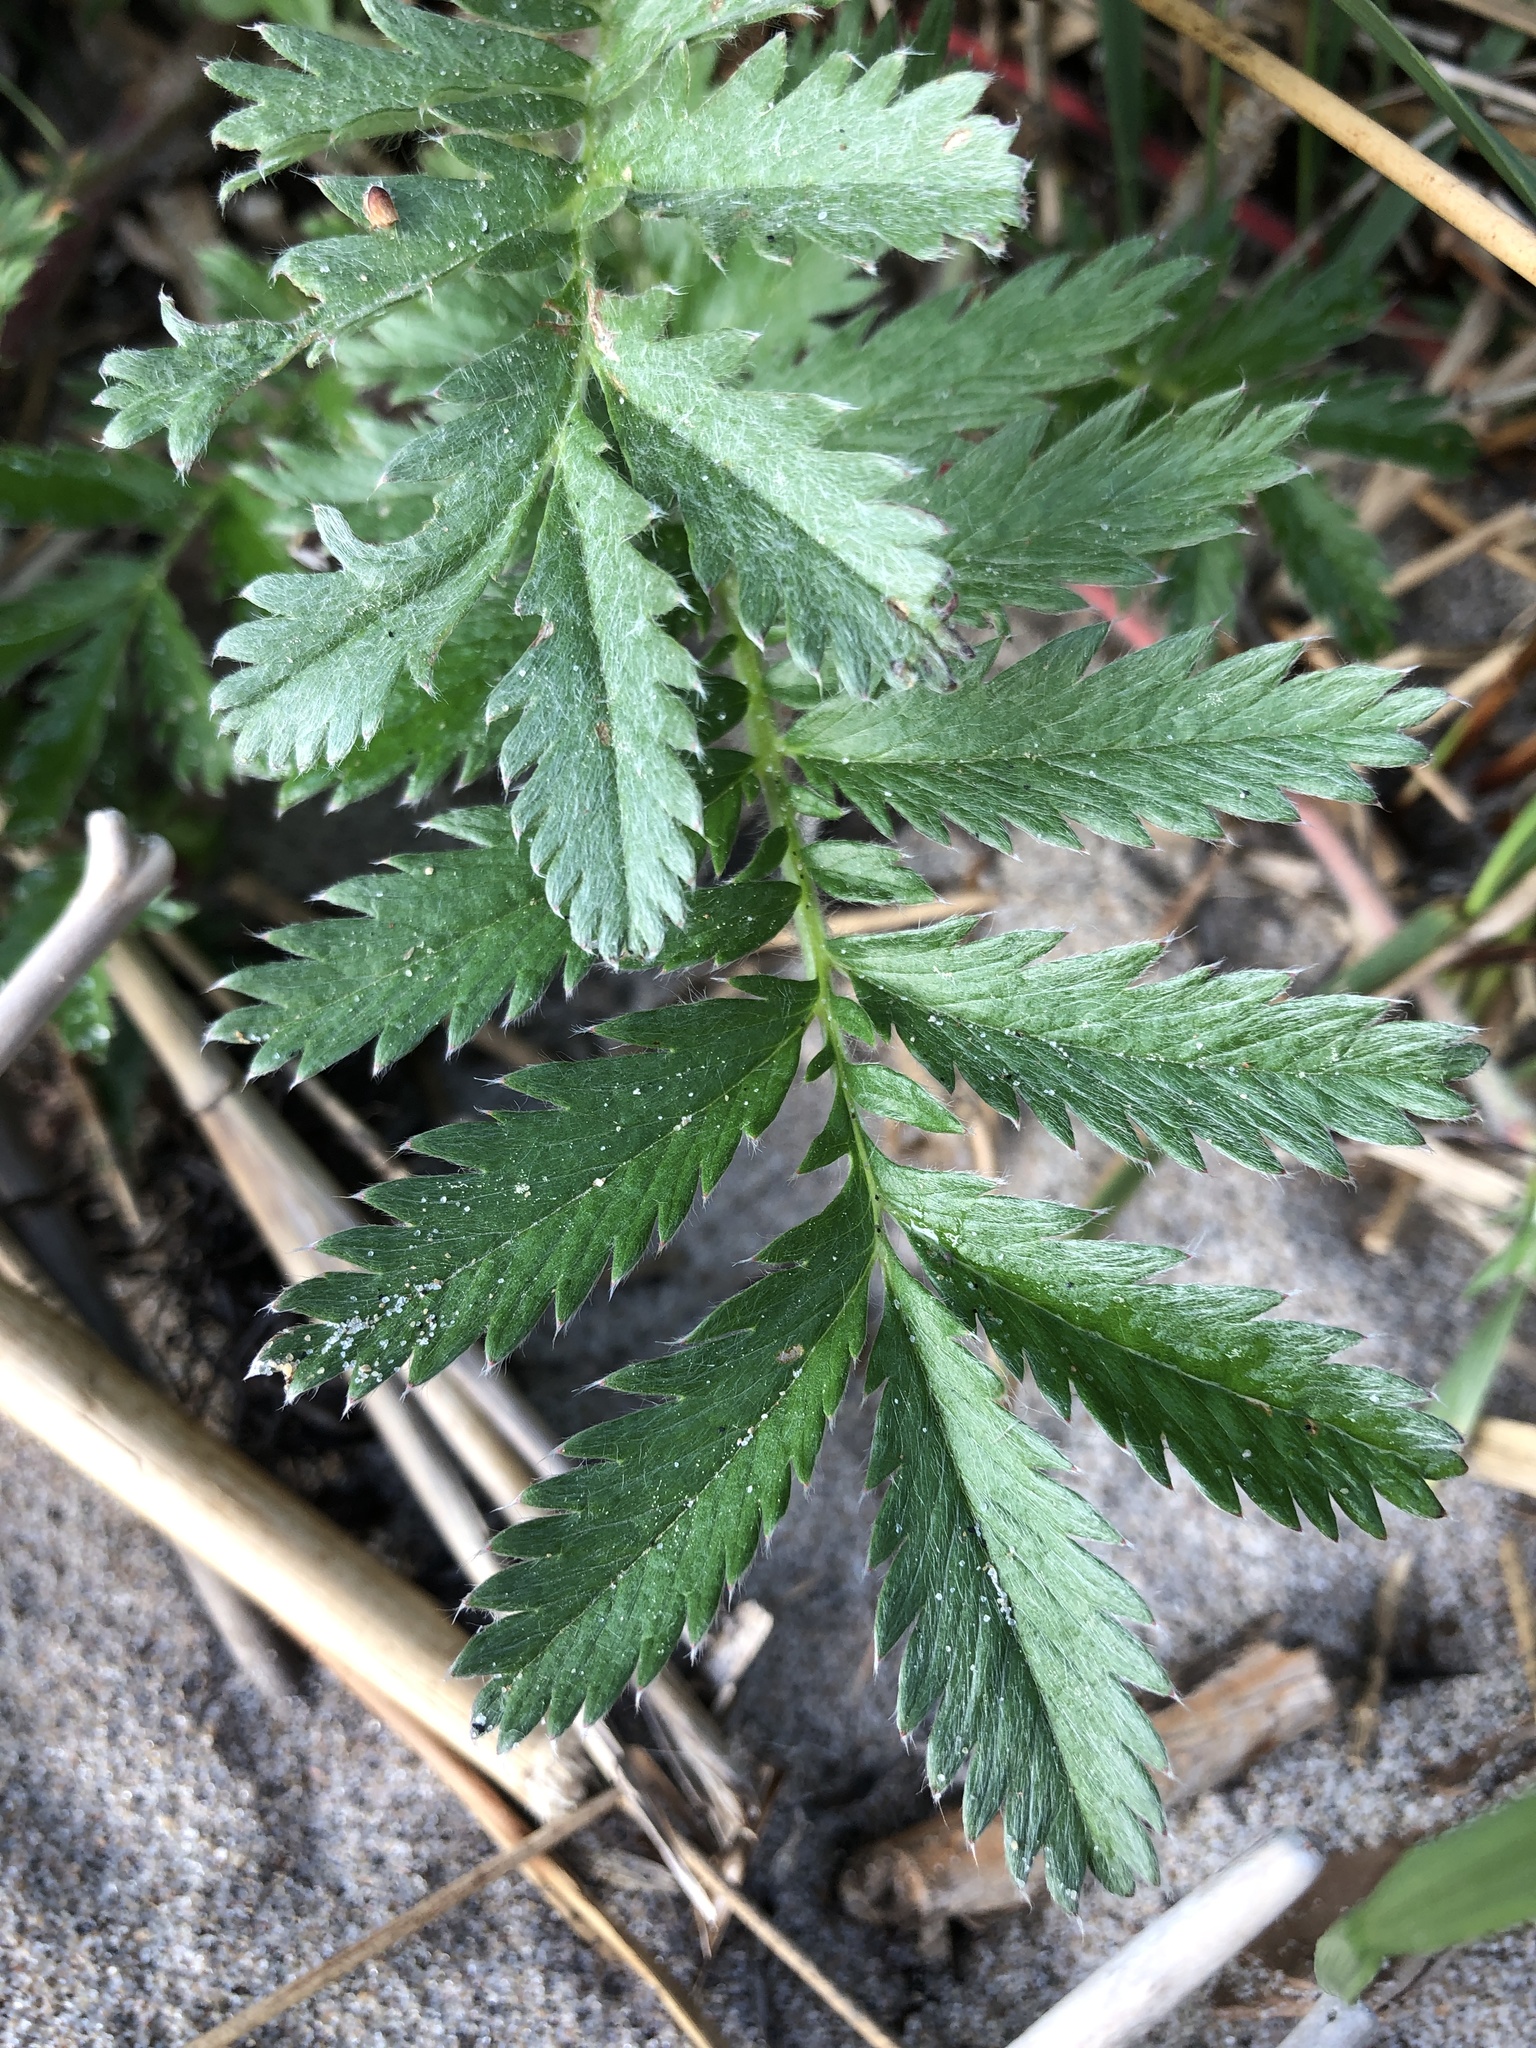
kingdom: Plantae
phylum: Tracheophyta
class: Magnoliopsida
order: Rosales
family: Rosaceae
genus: Argentina
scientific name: Argentina anserina
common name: Common silverweed
